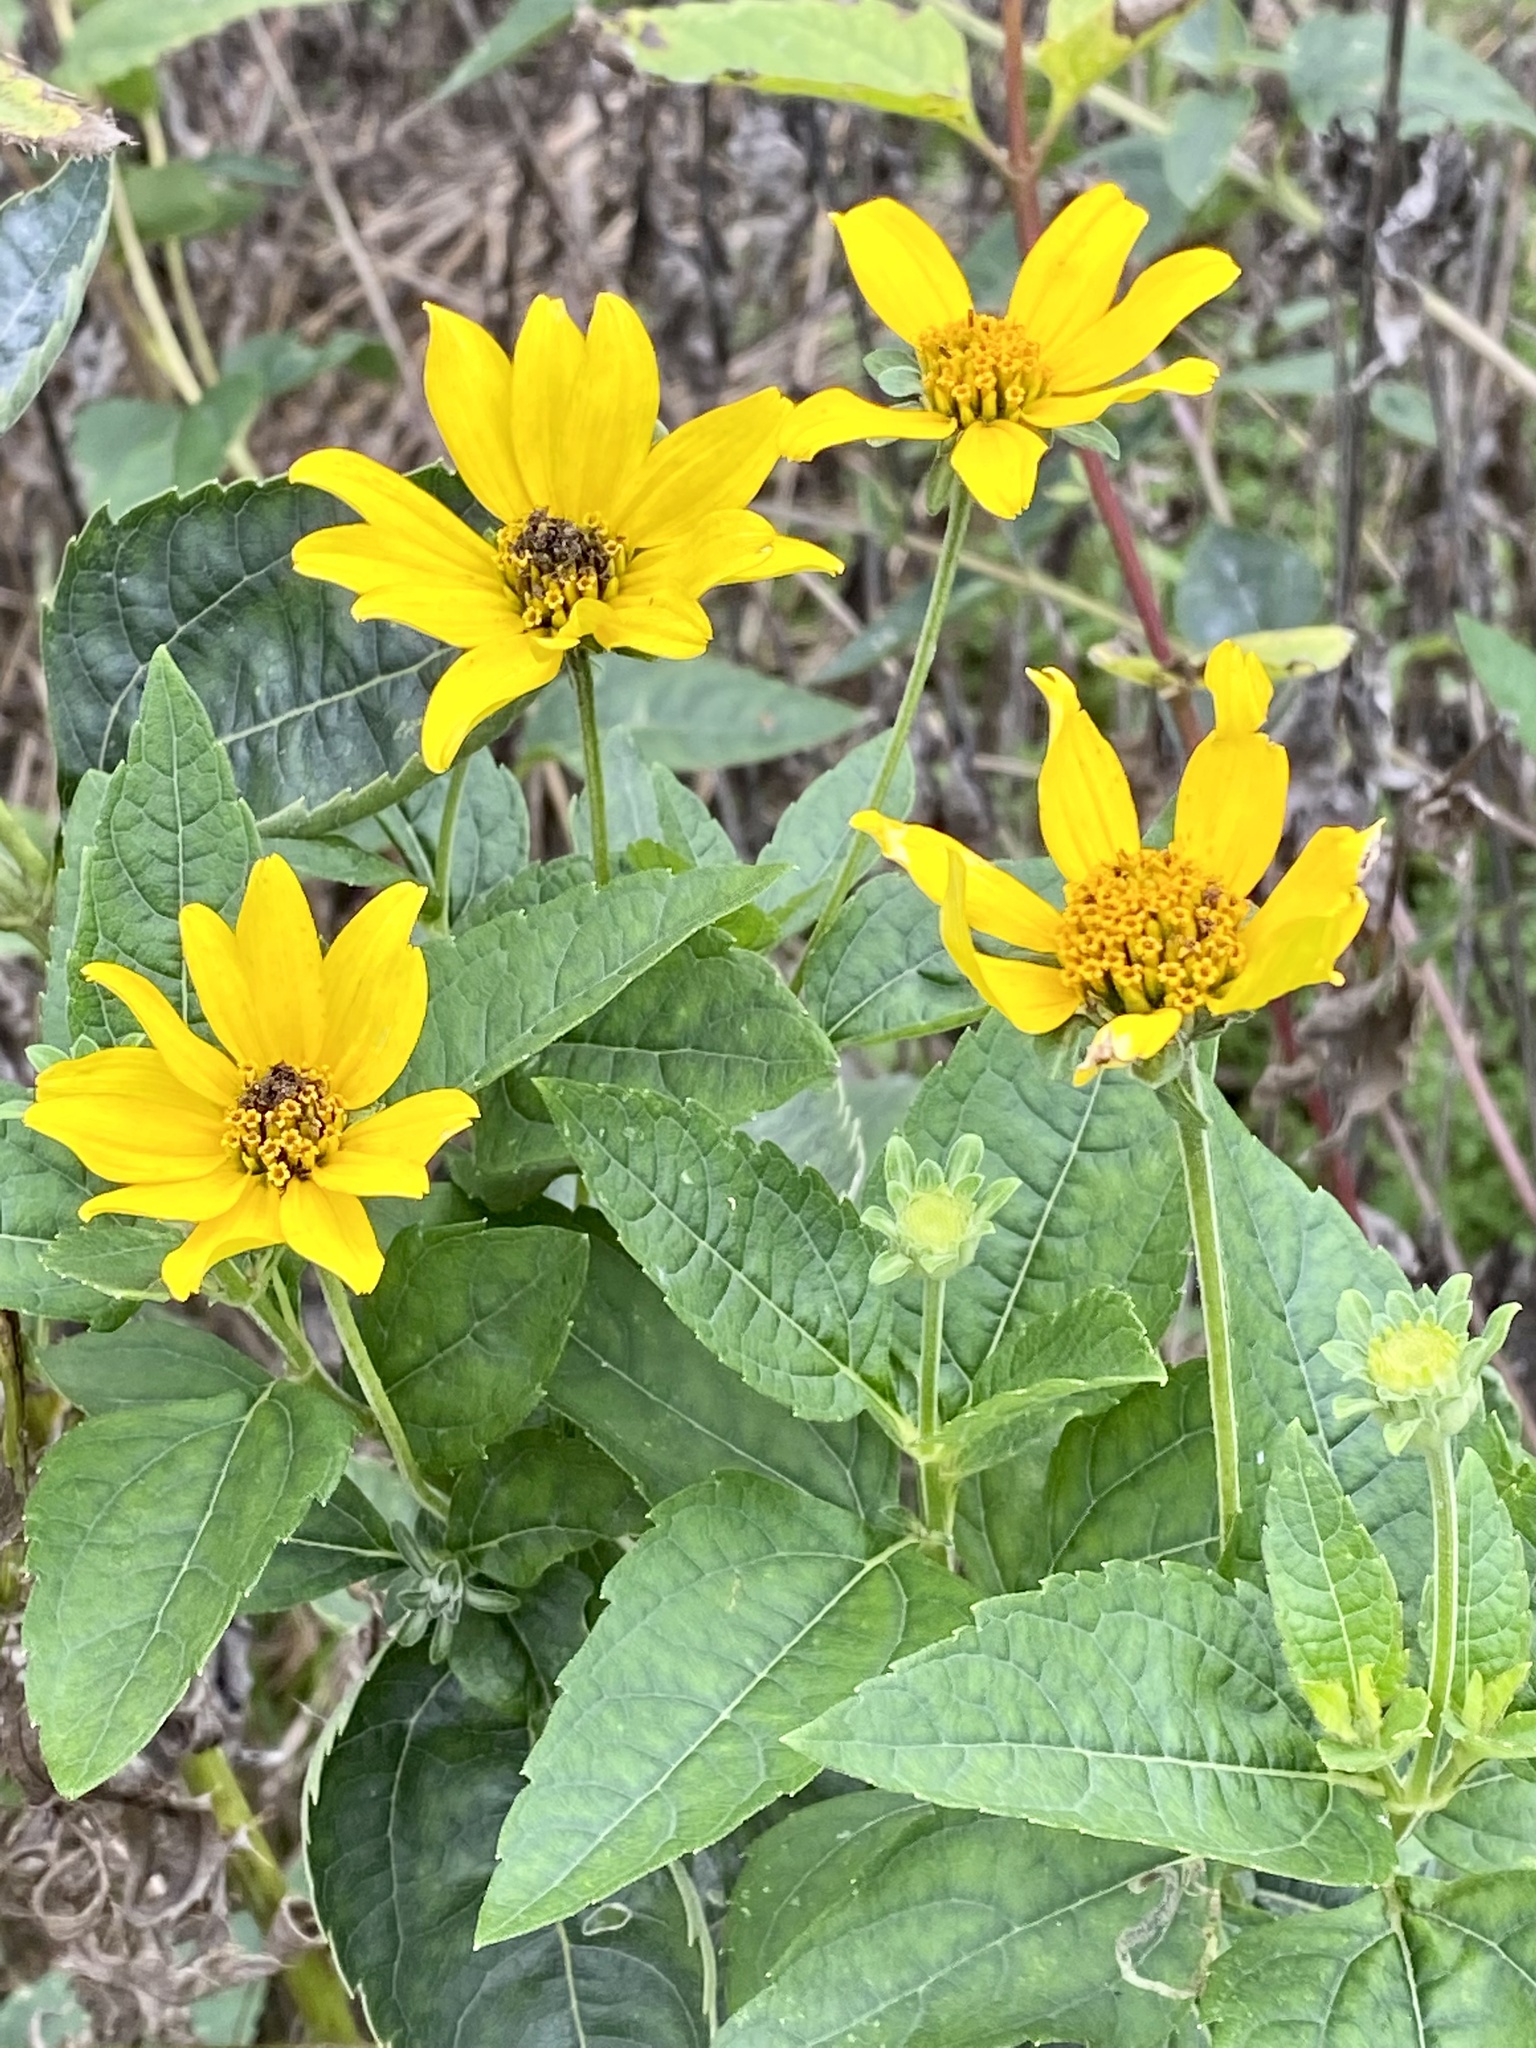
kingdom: Plantae
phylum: Tracheophyta
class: Magnoliopsida
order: Asterales
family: Asteraceae
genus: Heliopsis
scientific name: Heliopsis helianthoides
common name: False sunflower
